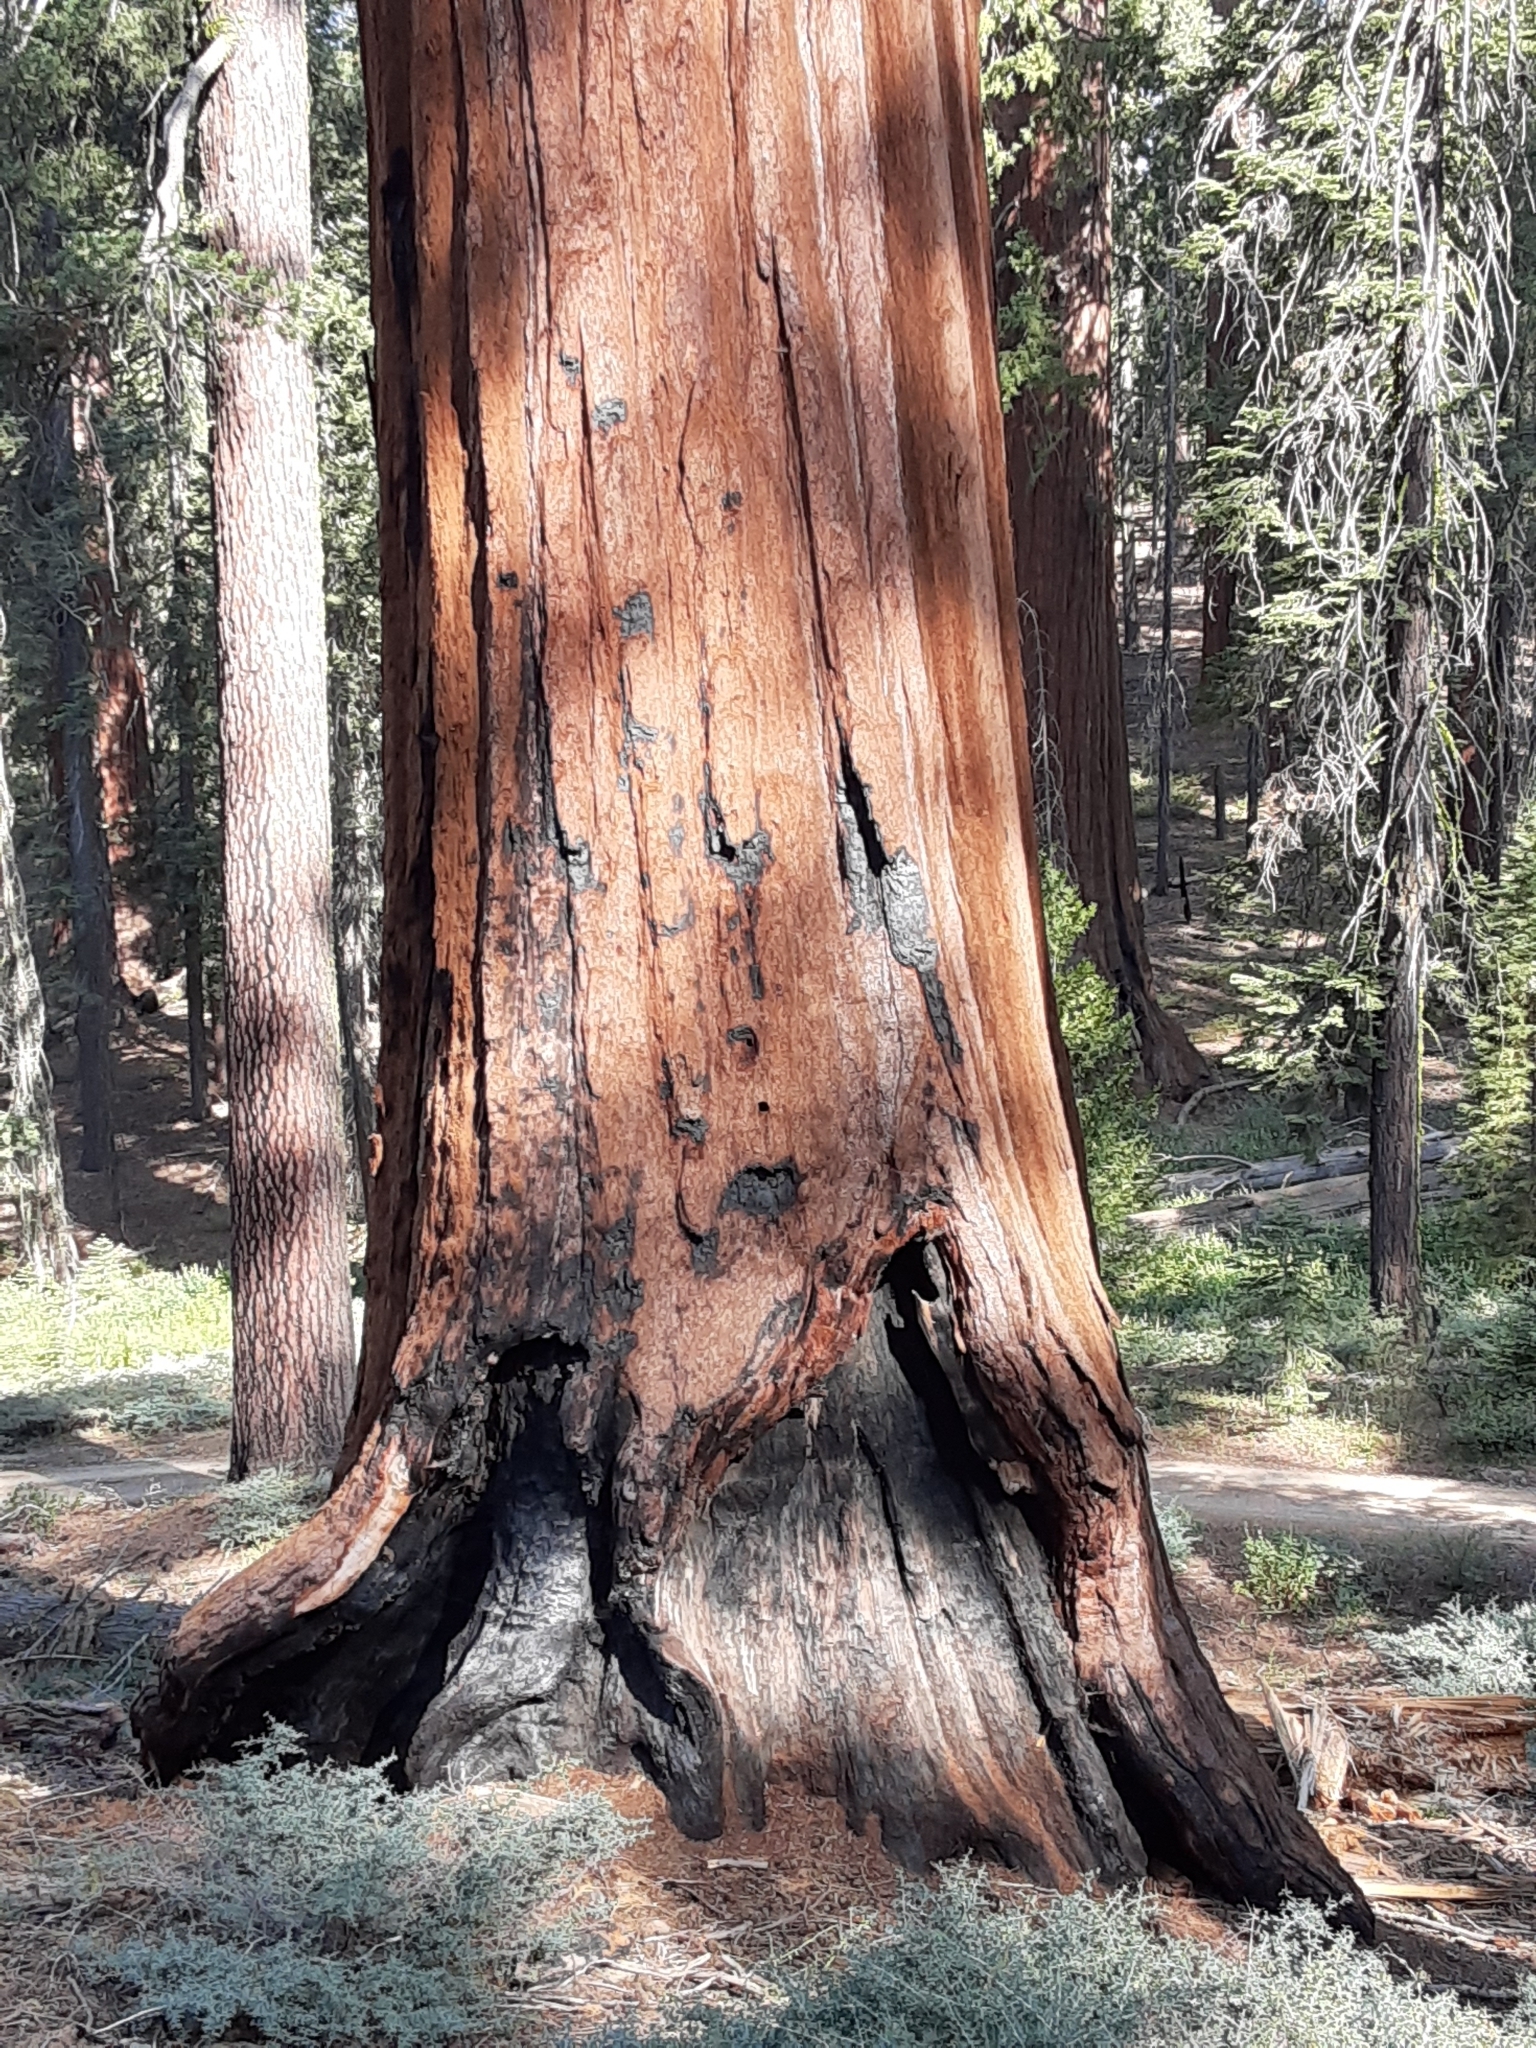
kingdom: Plantae
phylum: Tracheophyta
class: Pinopsida
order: Pinales
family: Cupressaceae
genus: Sequoiadendron
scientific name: Sequoiadendron giganteum
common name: Wellingtonia
